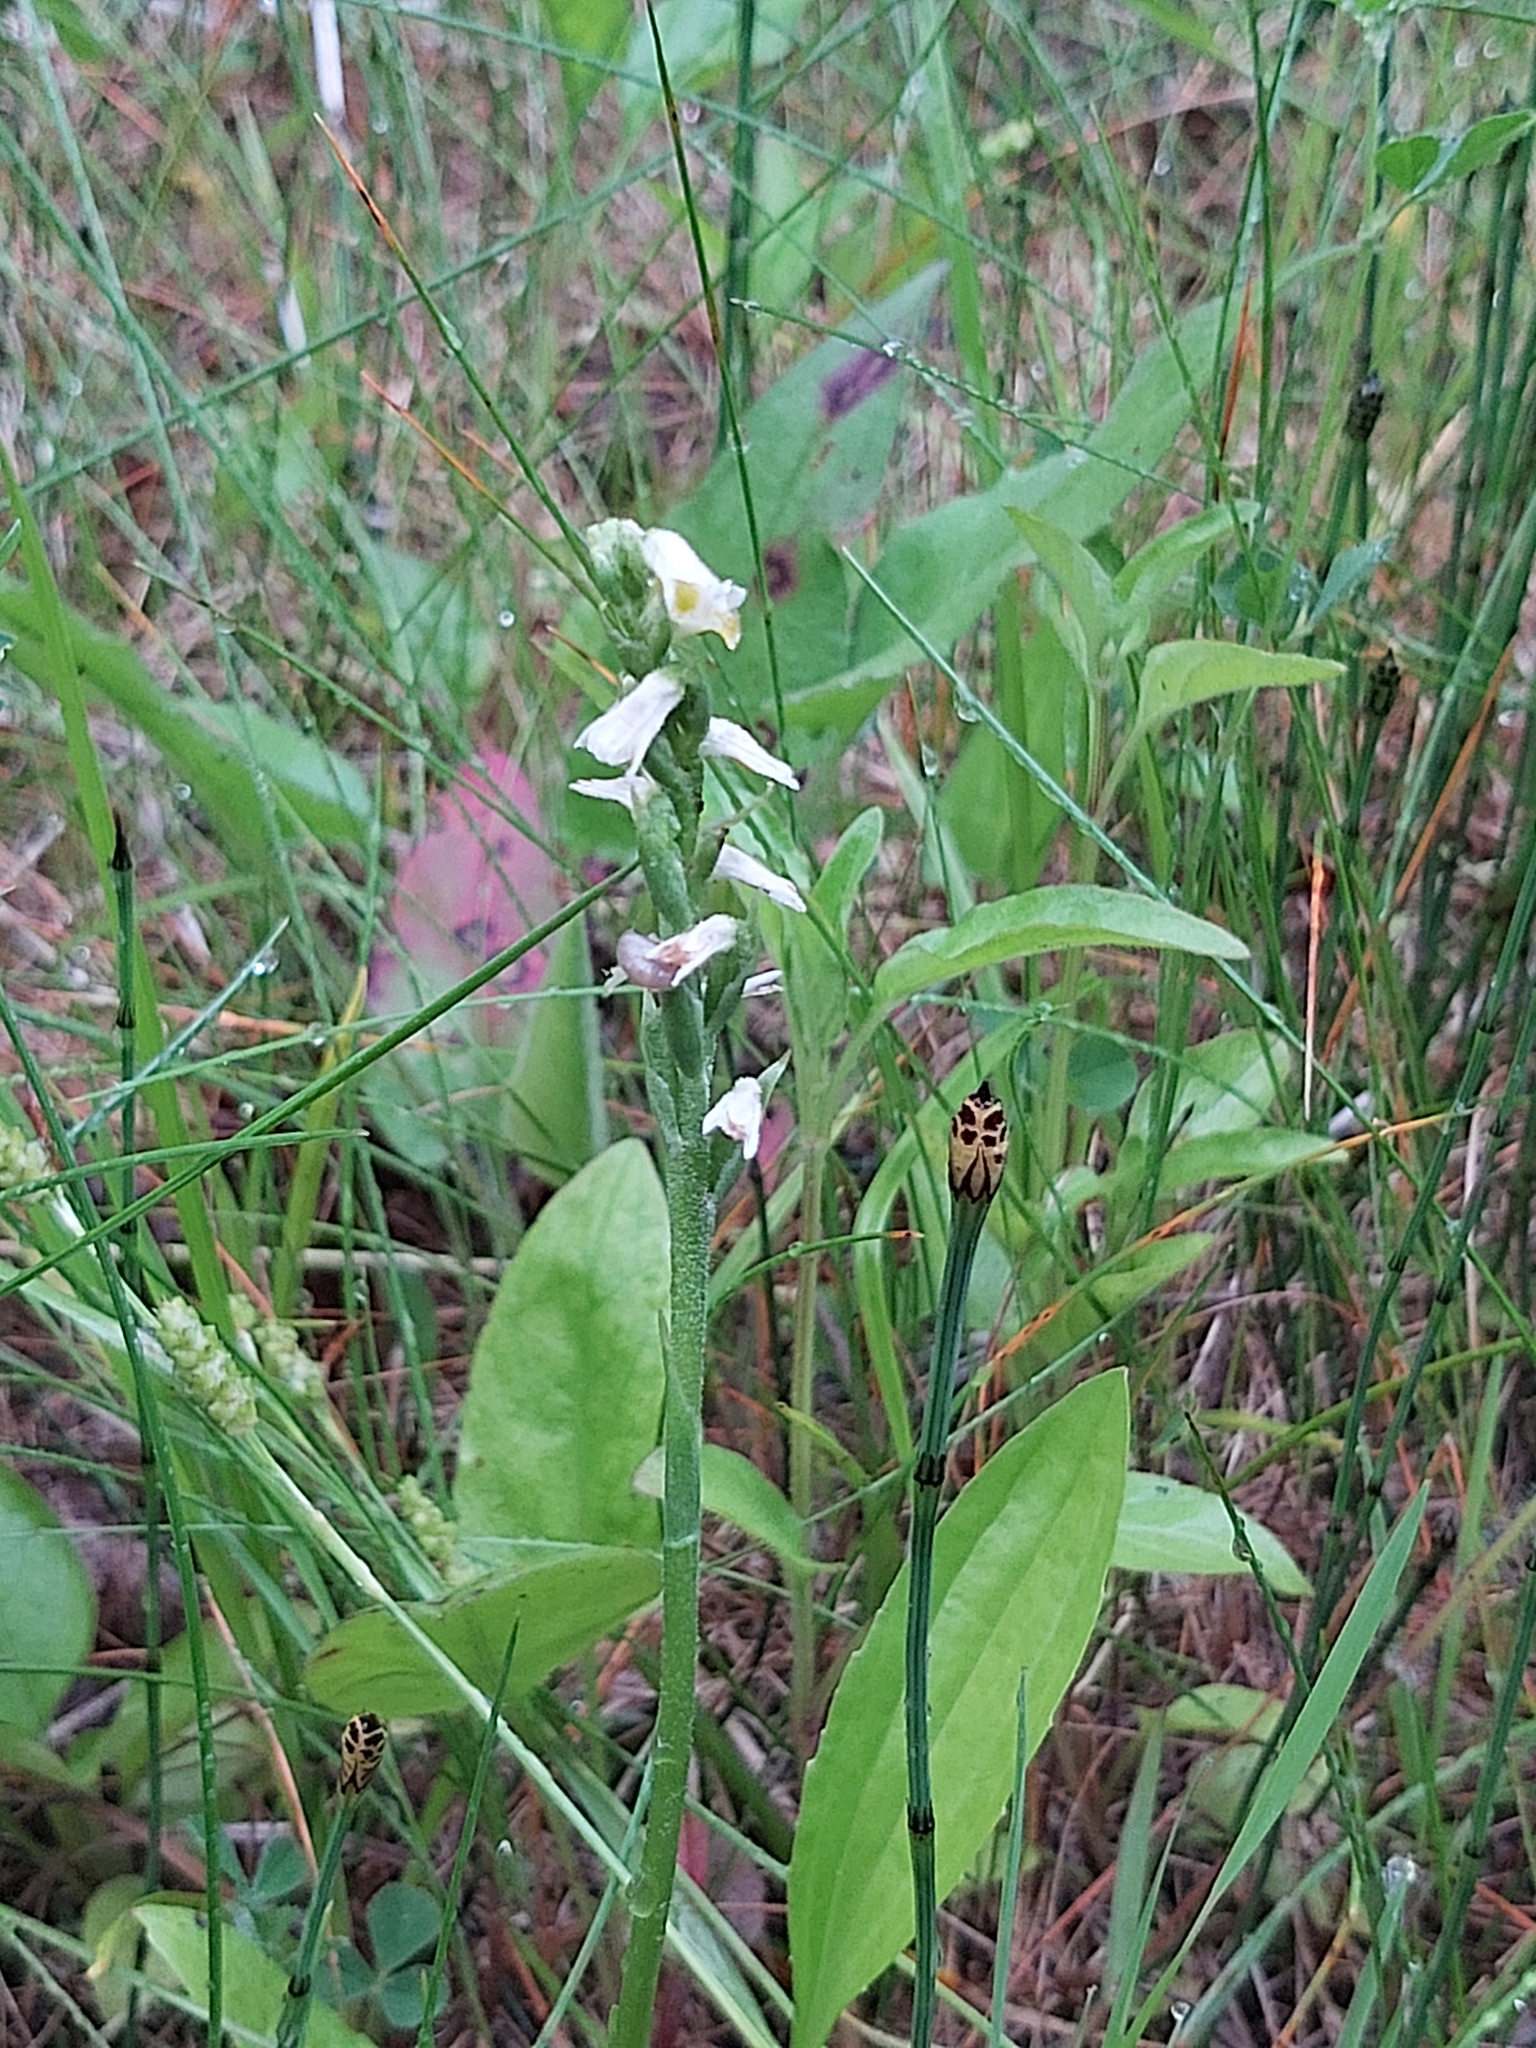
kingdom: Plantae
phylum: Tracheophyta
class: Liliopsida
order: Asparagales
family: Orchidaceae
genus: Spiranthes
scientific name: Spiranthes lucida
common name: Broad-leaved ladies'-tresses
